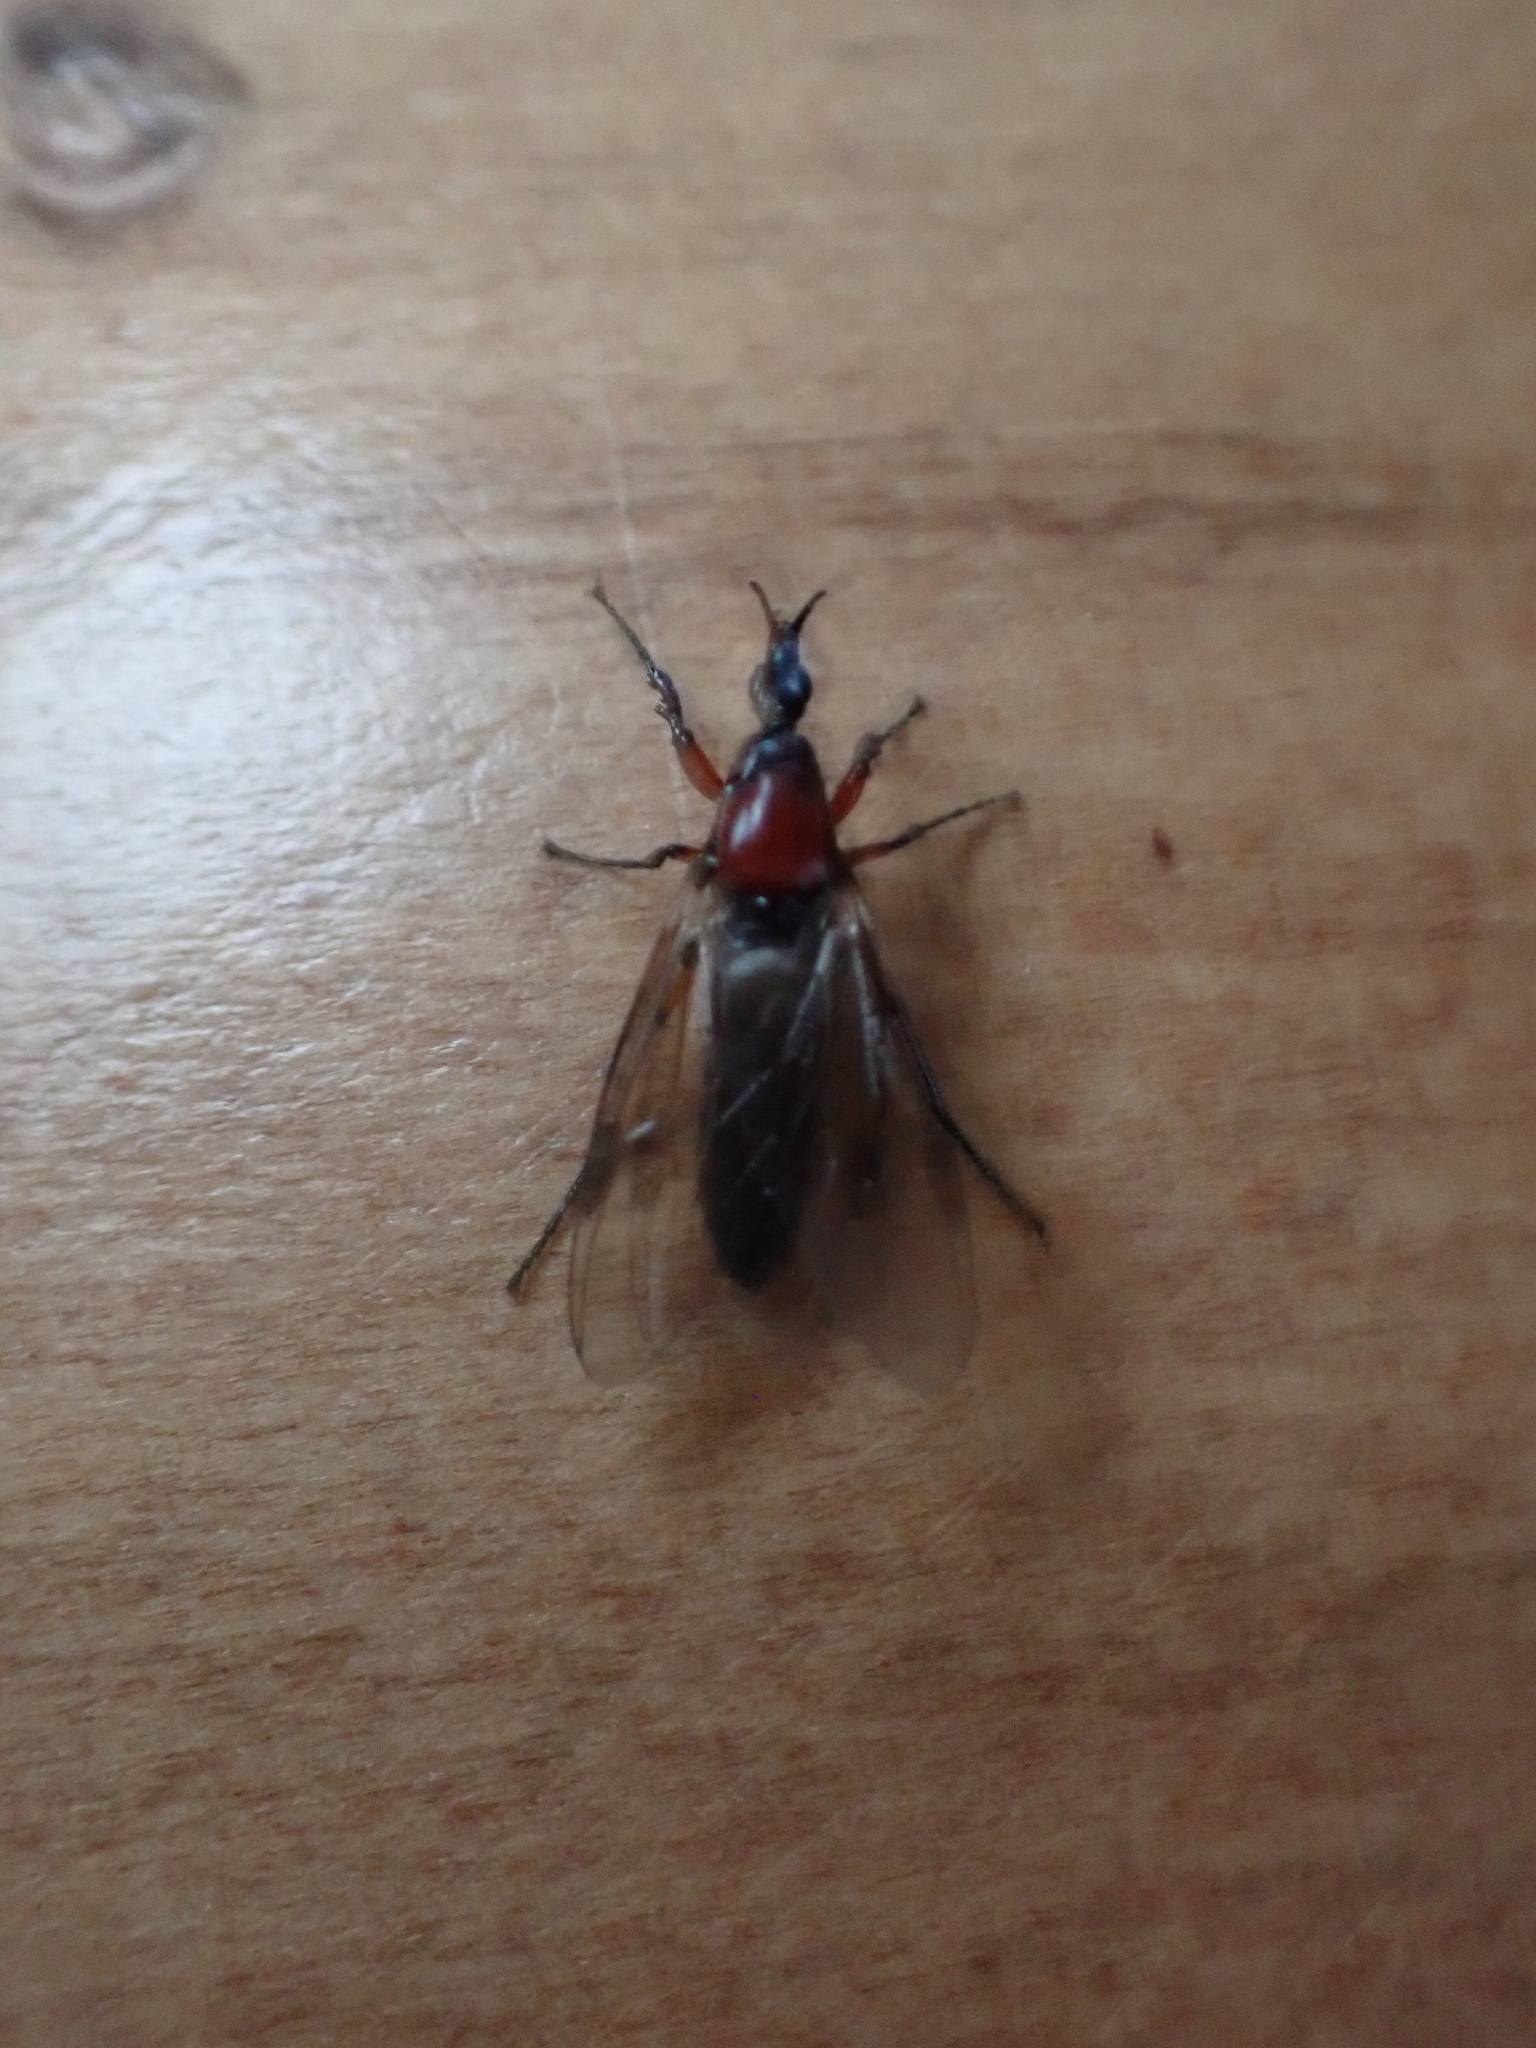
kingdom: Animalia
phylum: Arthropoda
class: Insecta
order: Diptera
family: Bibionidae
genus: Dilophus
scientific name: Dilophus nigrostigma
